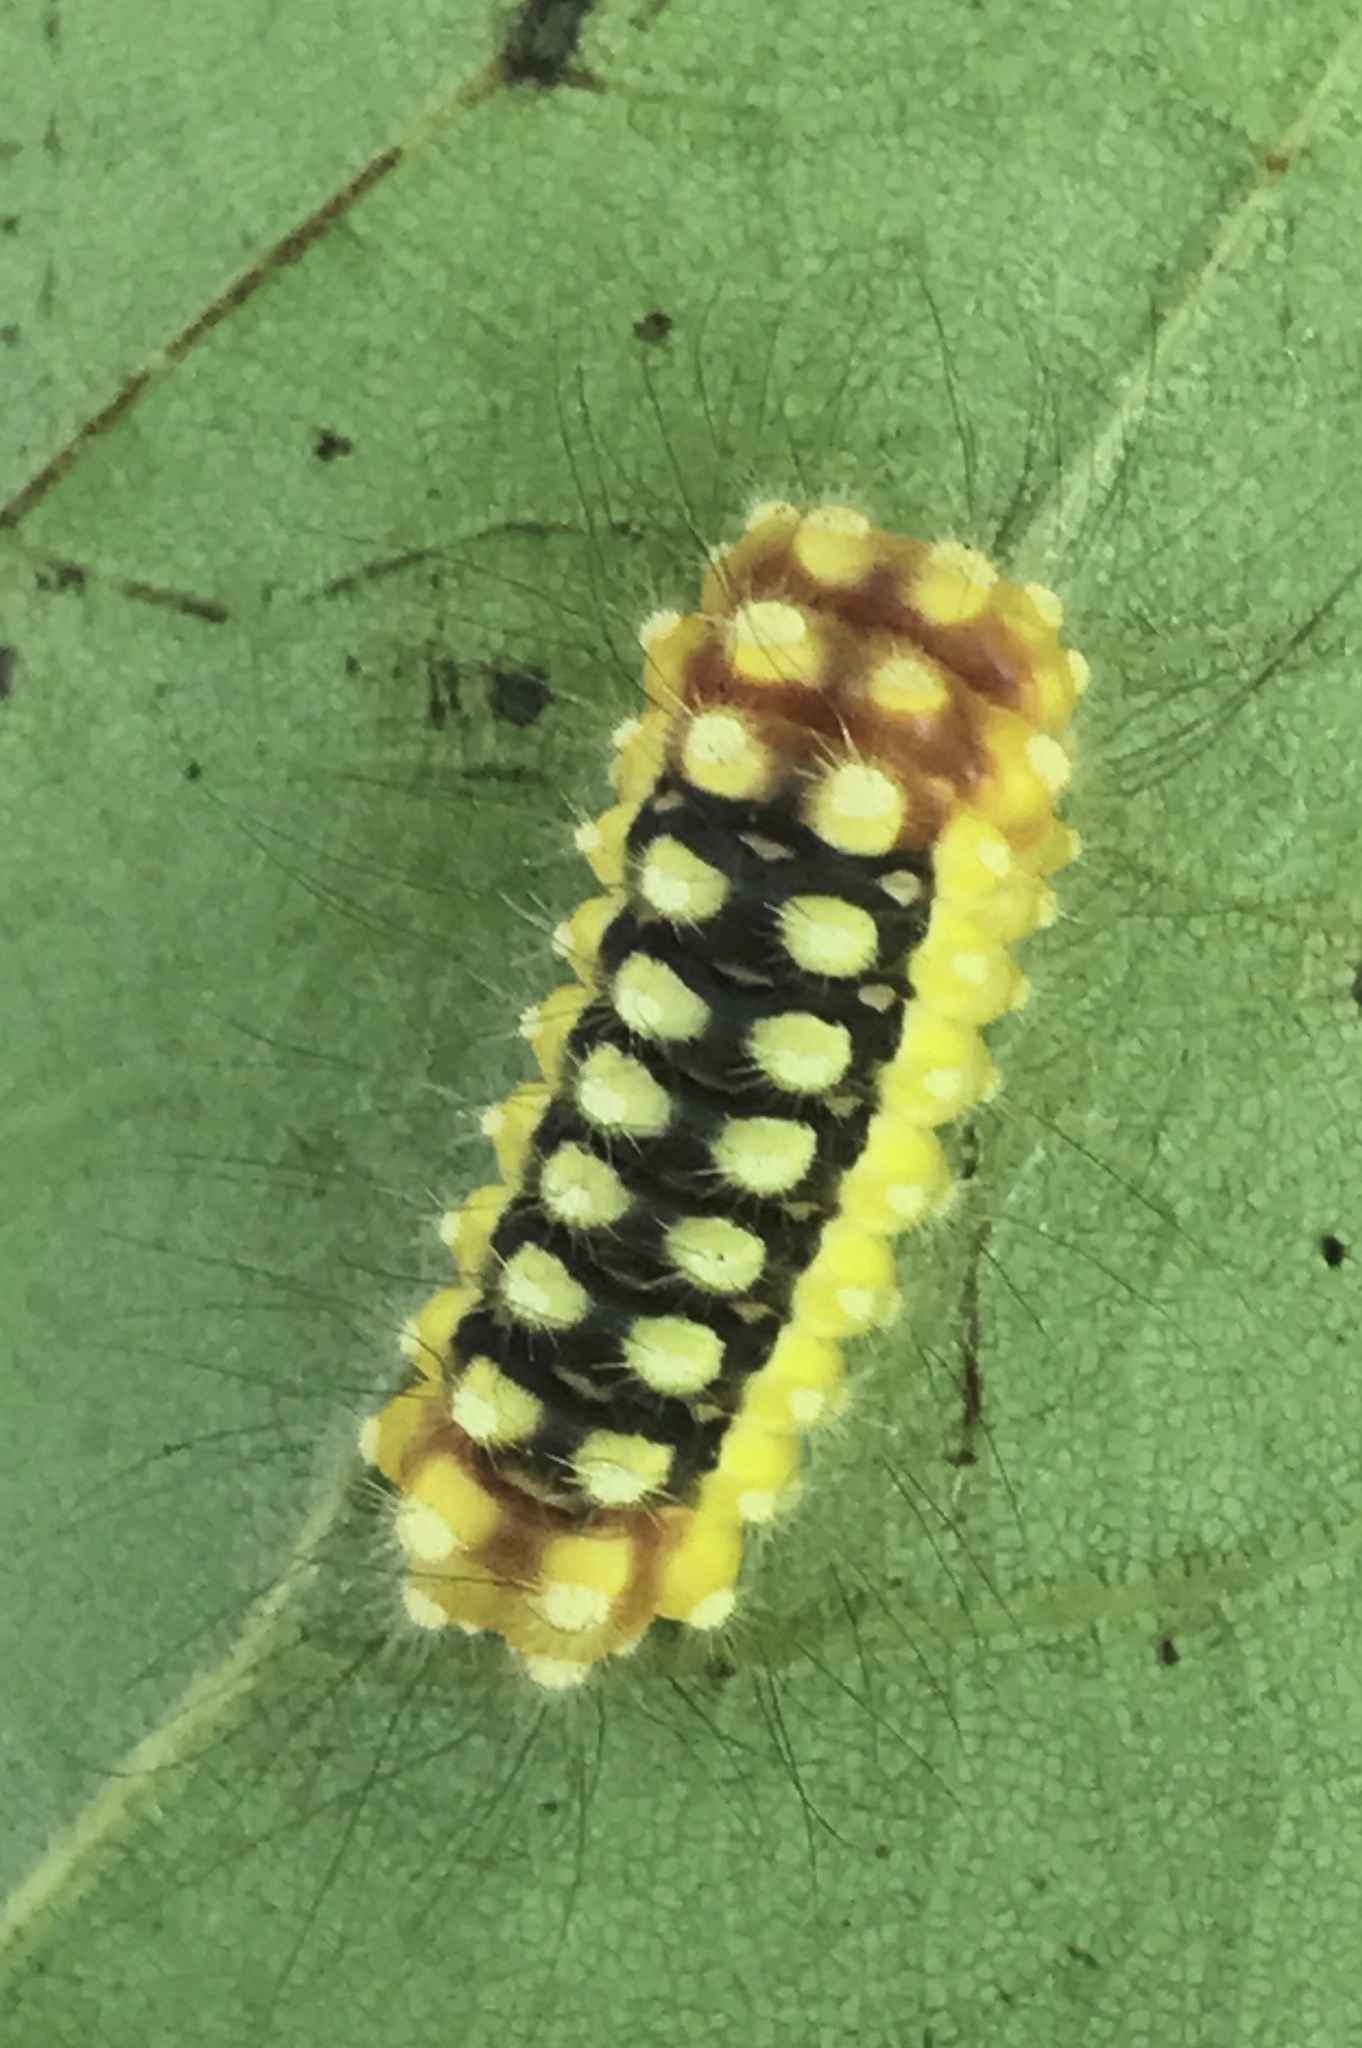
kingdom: Animalia
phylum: Arthropoda
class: Insecta
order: Lepidoptera
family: Megalopygidae
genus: Norape
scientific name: Norape cretata
